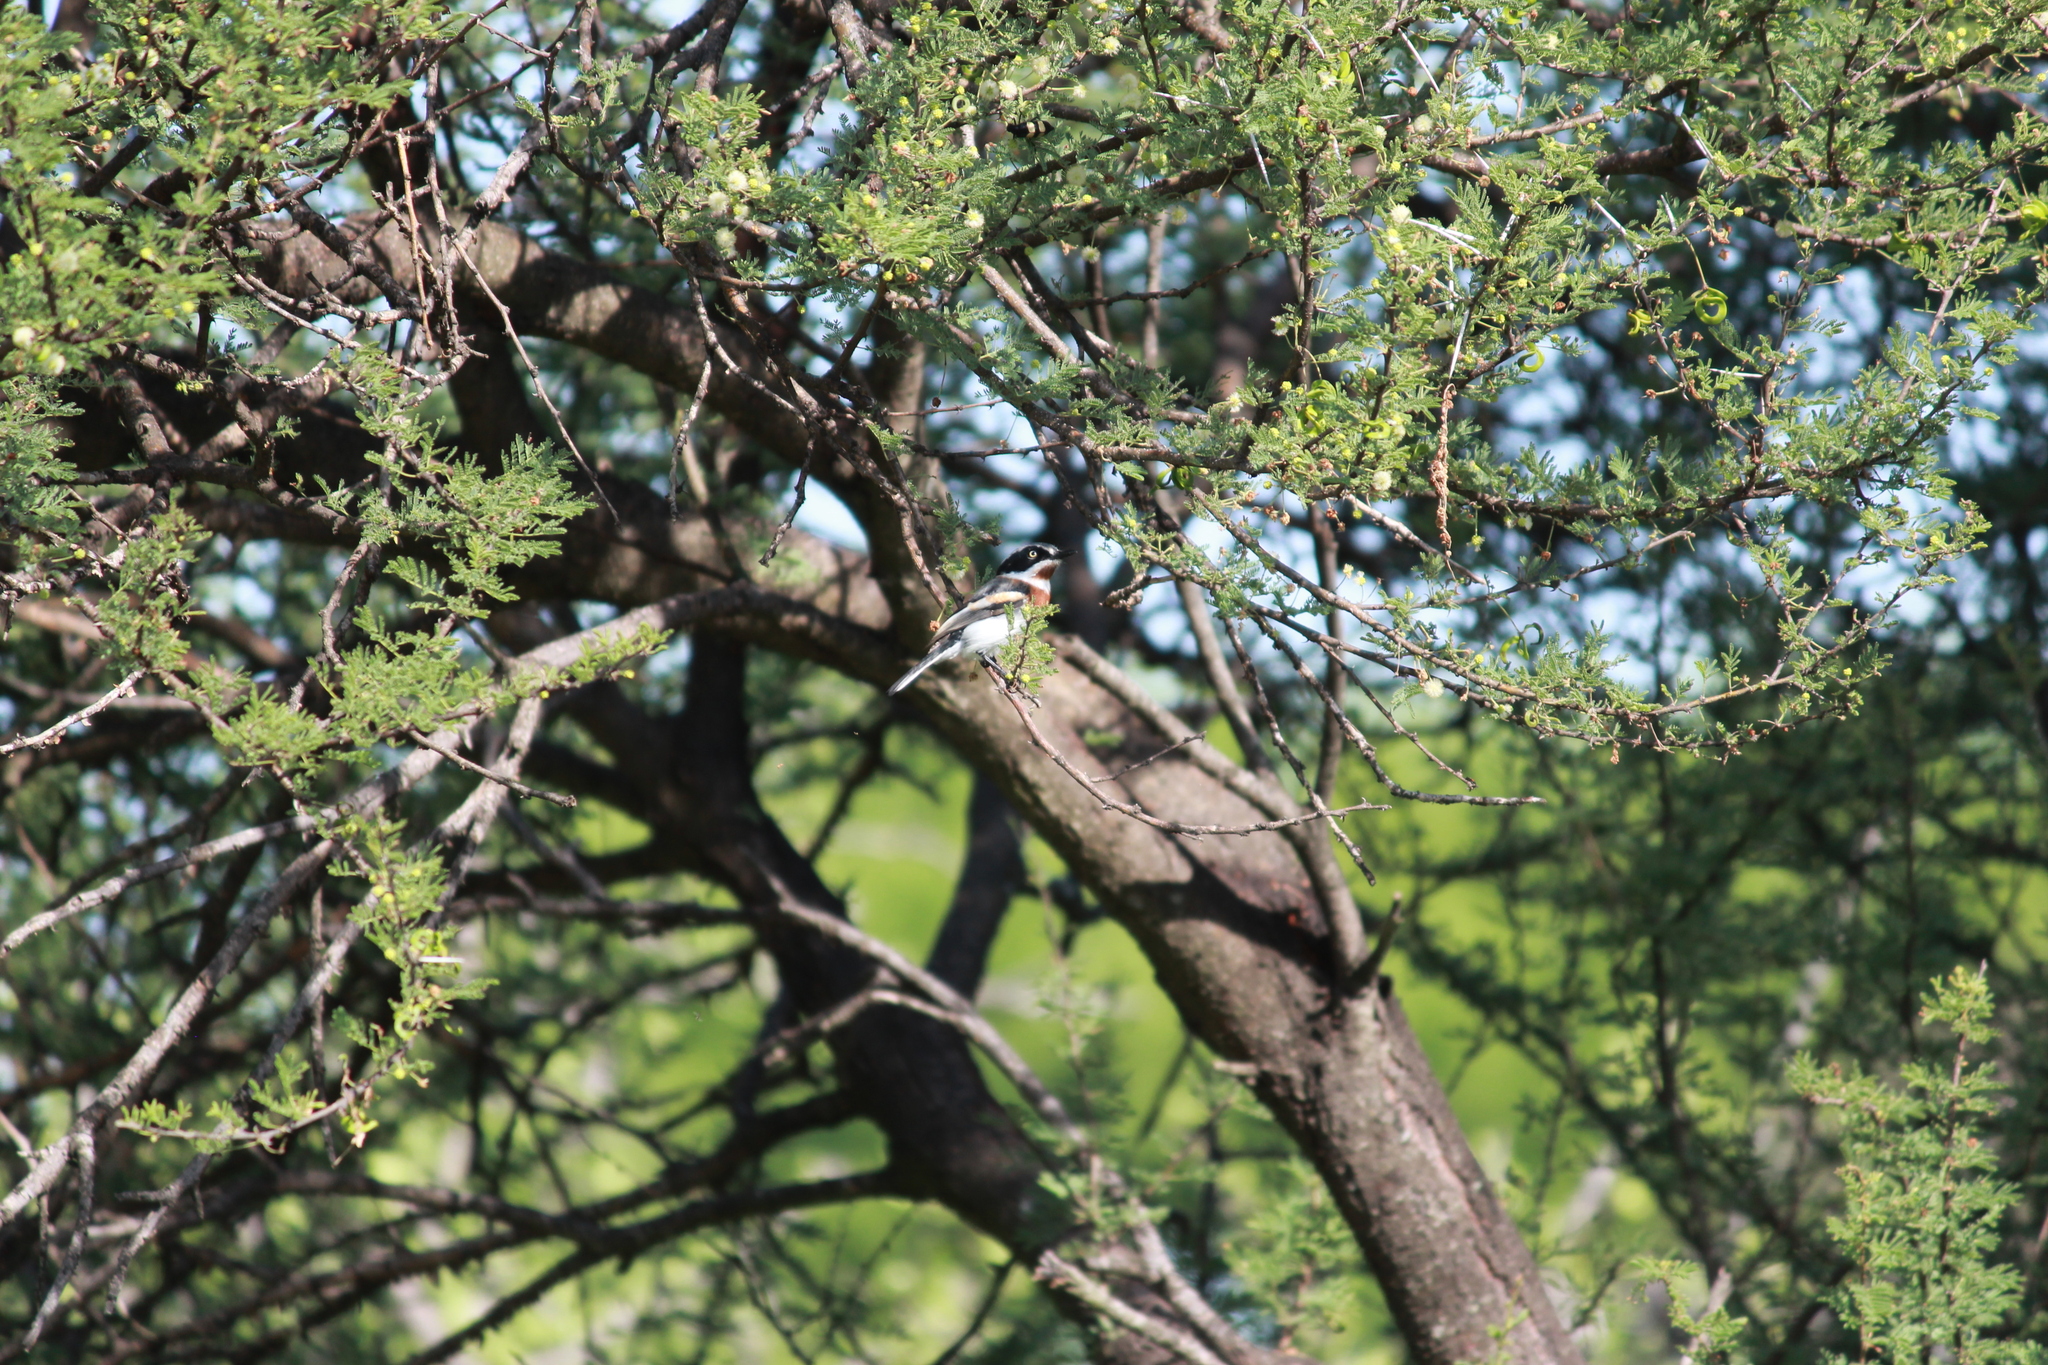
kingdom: Animalia
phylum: Chordata
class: Aves
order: Passeriformes
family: Platysteiridae
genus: Batis
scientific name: Batis molitor
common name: Chinspot batis
